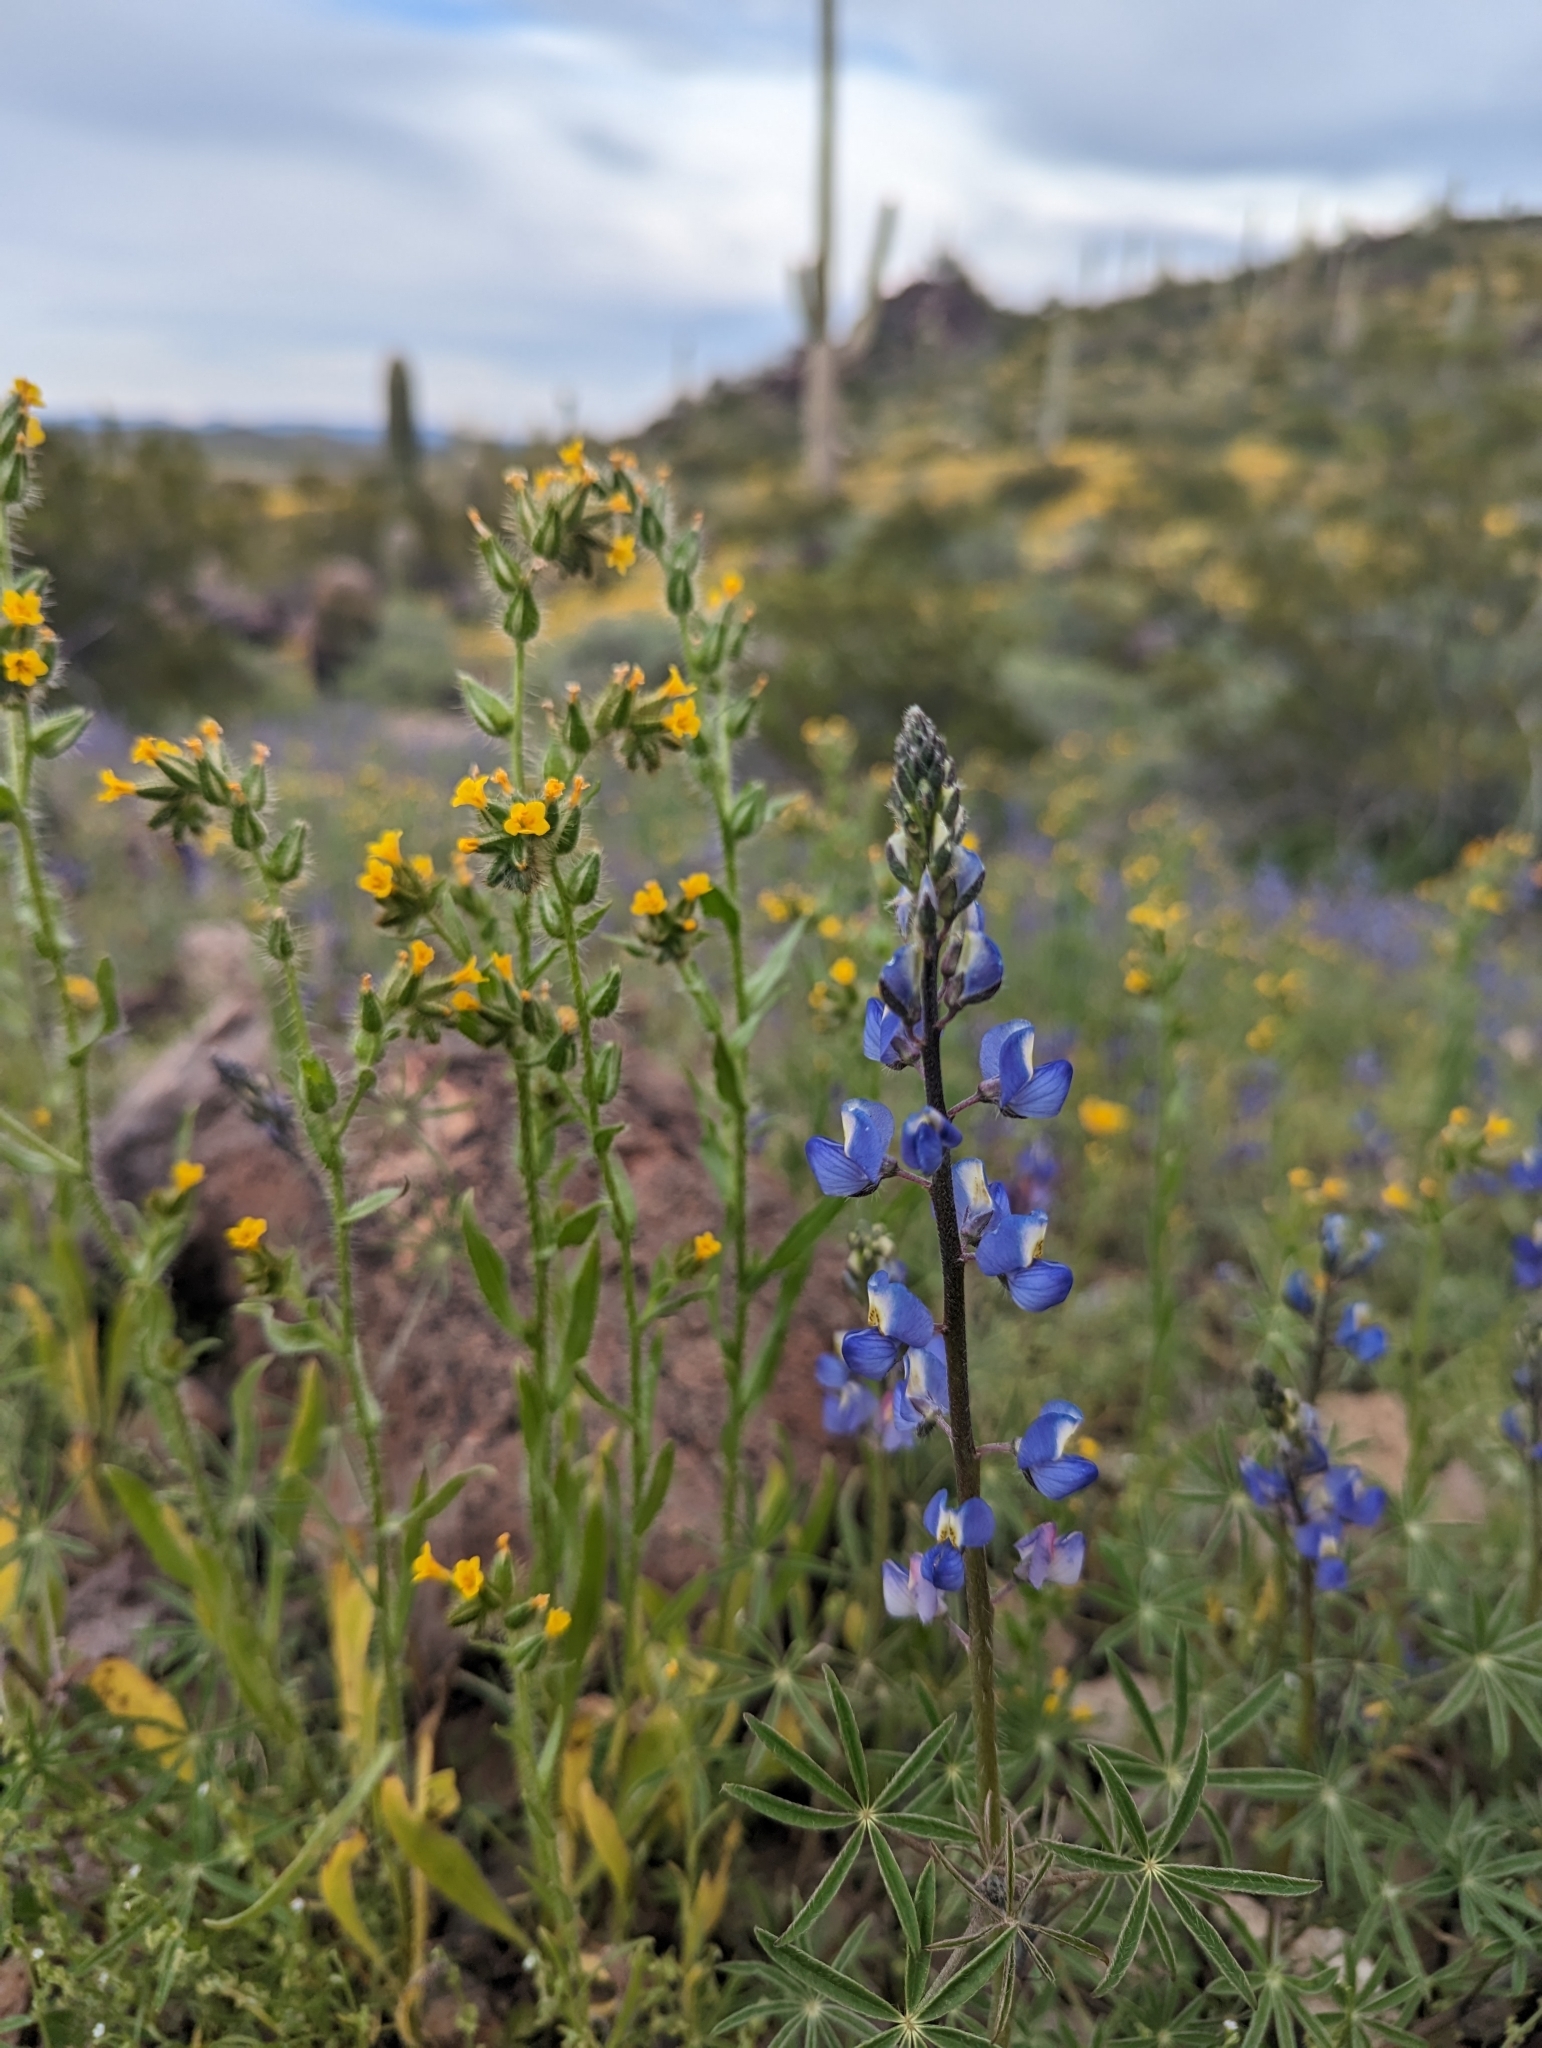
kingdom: Plantae
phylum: Tracheophyta
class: Magnoliopsida
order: Fabales
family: Fabaceae
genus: Lupinus
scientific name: Lupinus sparsiflorus
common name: Coulter's lupine
